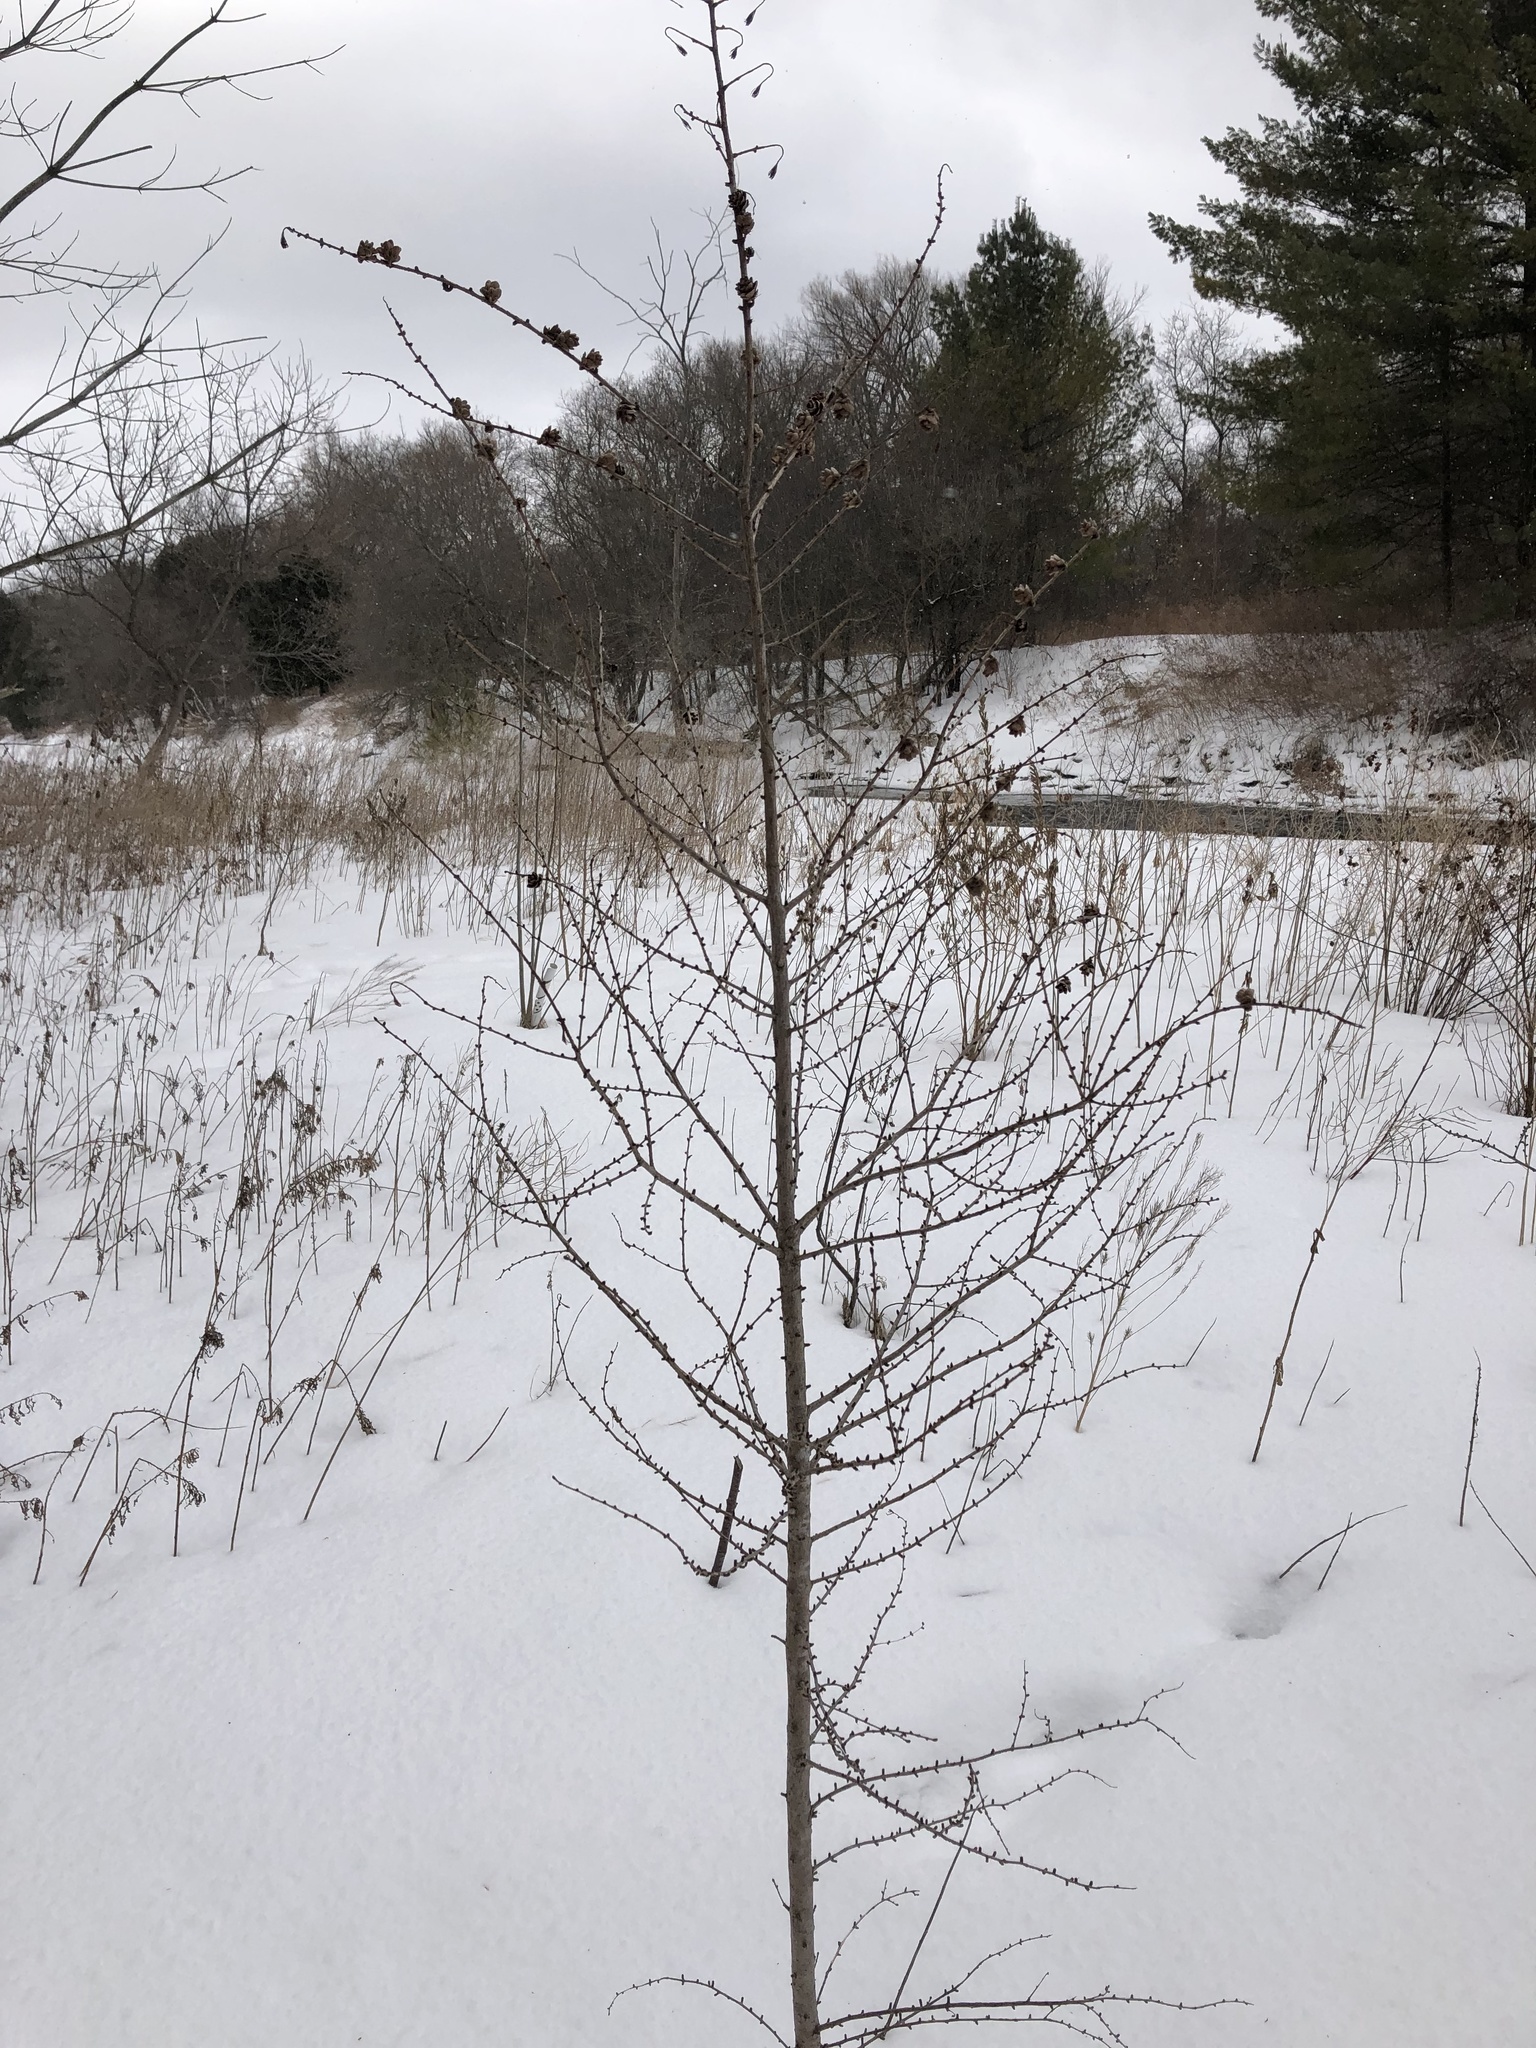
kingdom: Plantae
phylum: Tracheophyta
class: Pinopsida
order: Pinales
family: Pinaceae
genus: Larix
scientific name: Larix laricina
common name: American larch
